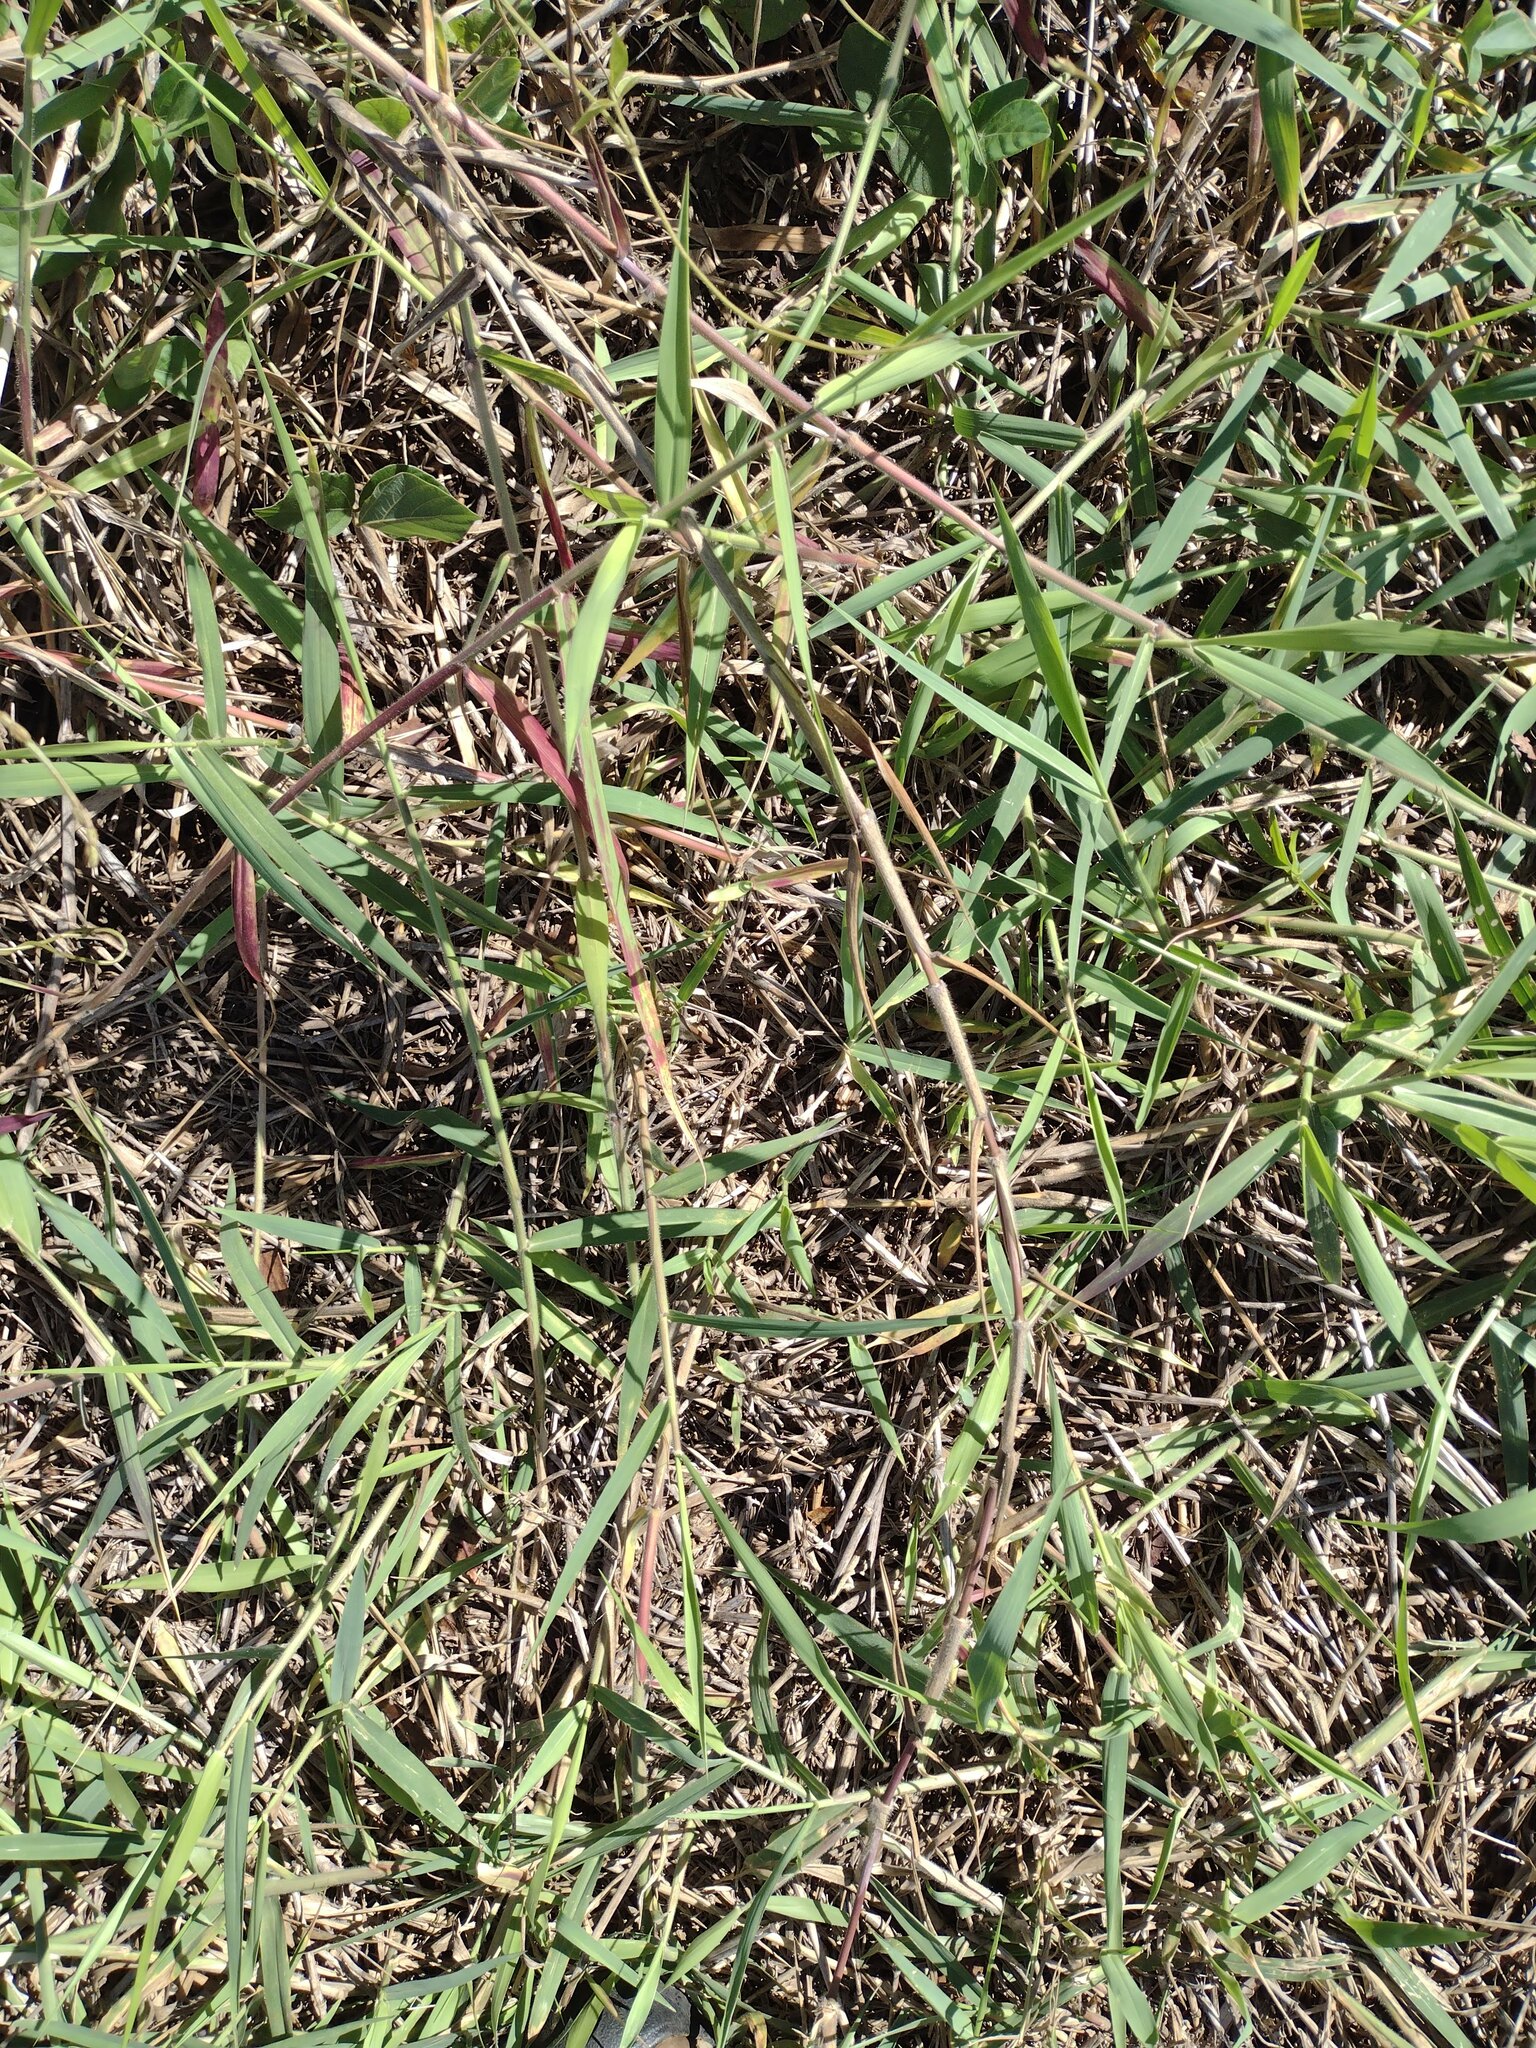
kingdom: Plantae
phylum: Tracheophyta
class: Liliopsida
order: Poales
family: Poaceae
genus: Urochloa
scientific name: Urochloa mutica
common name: Para grass
